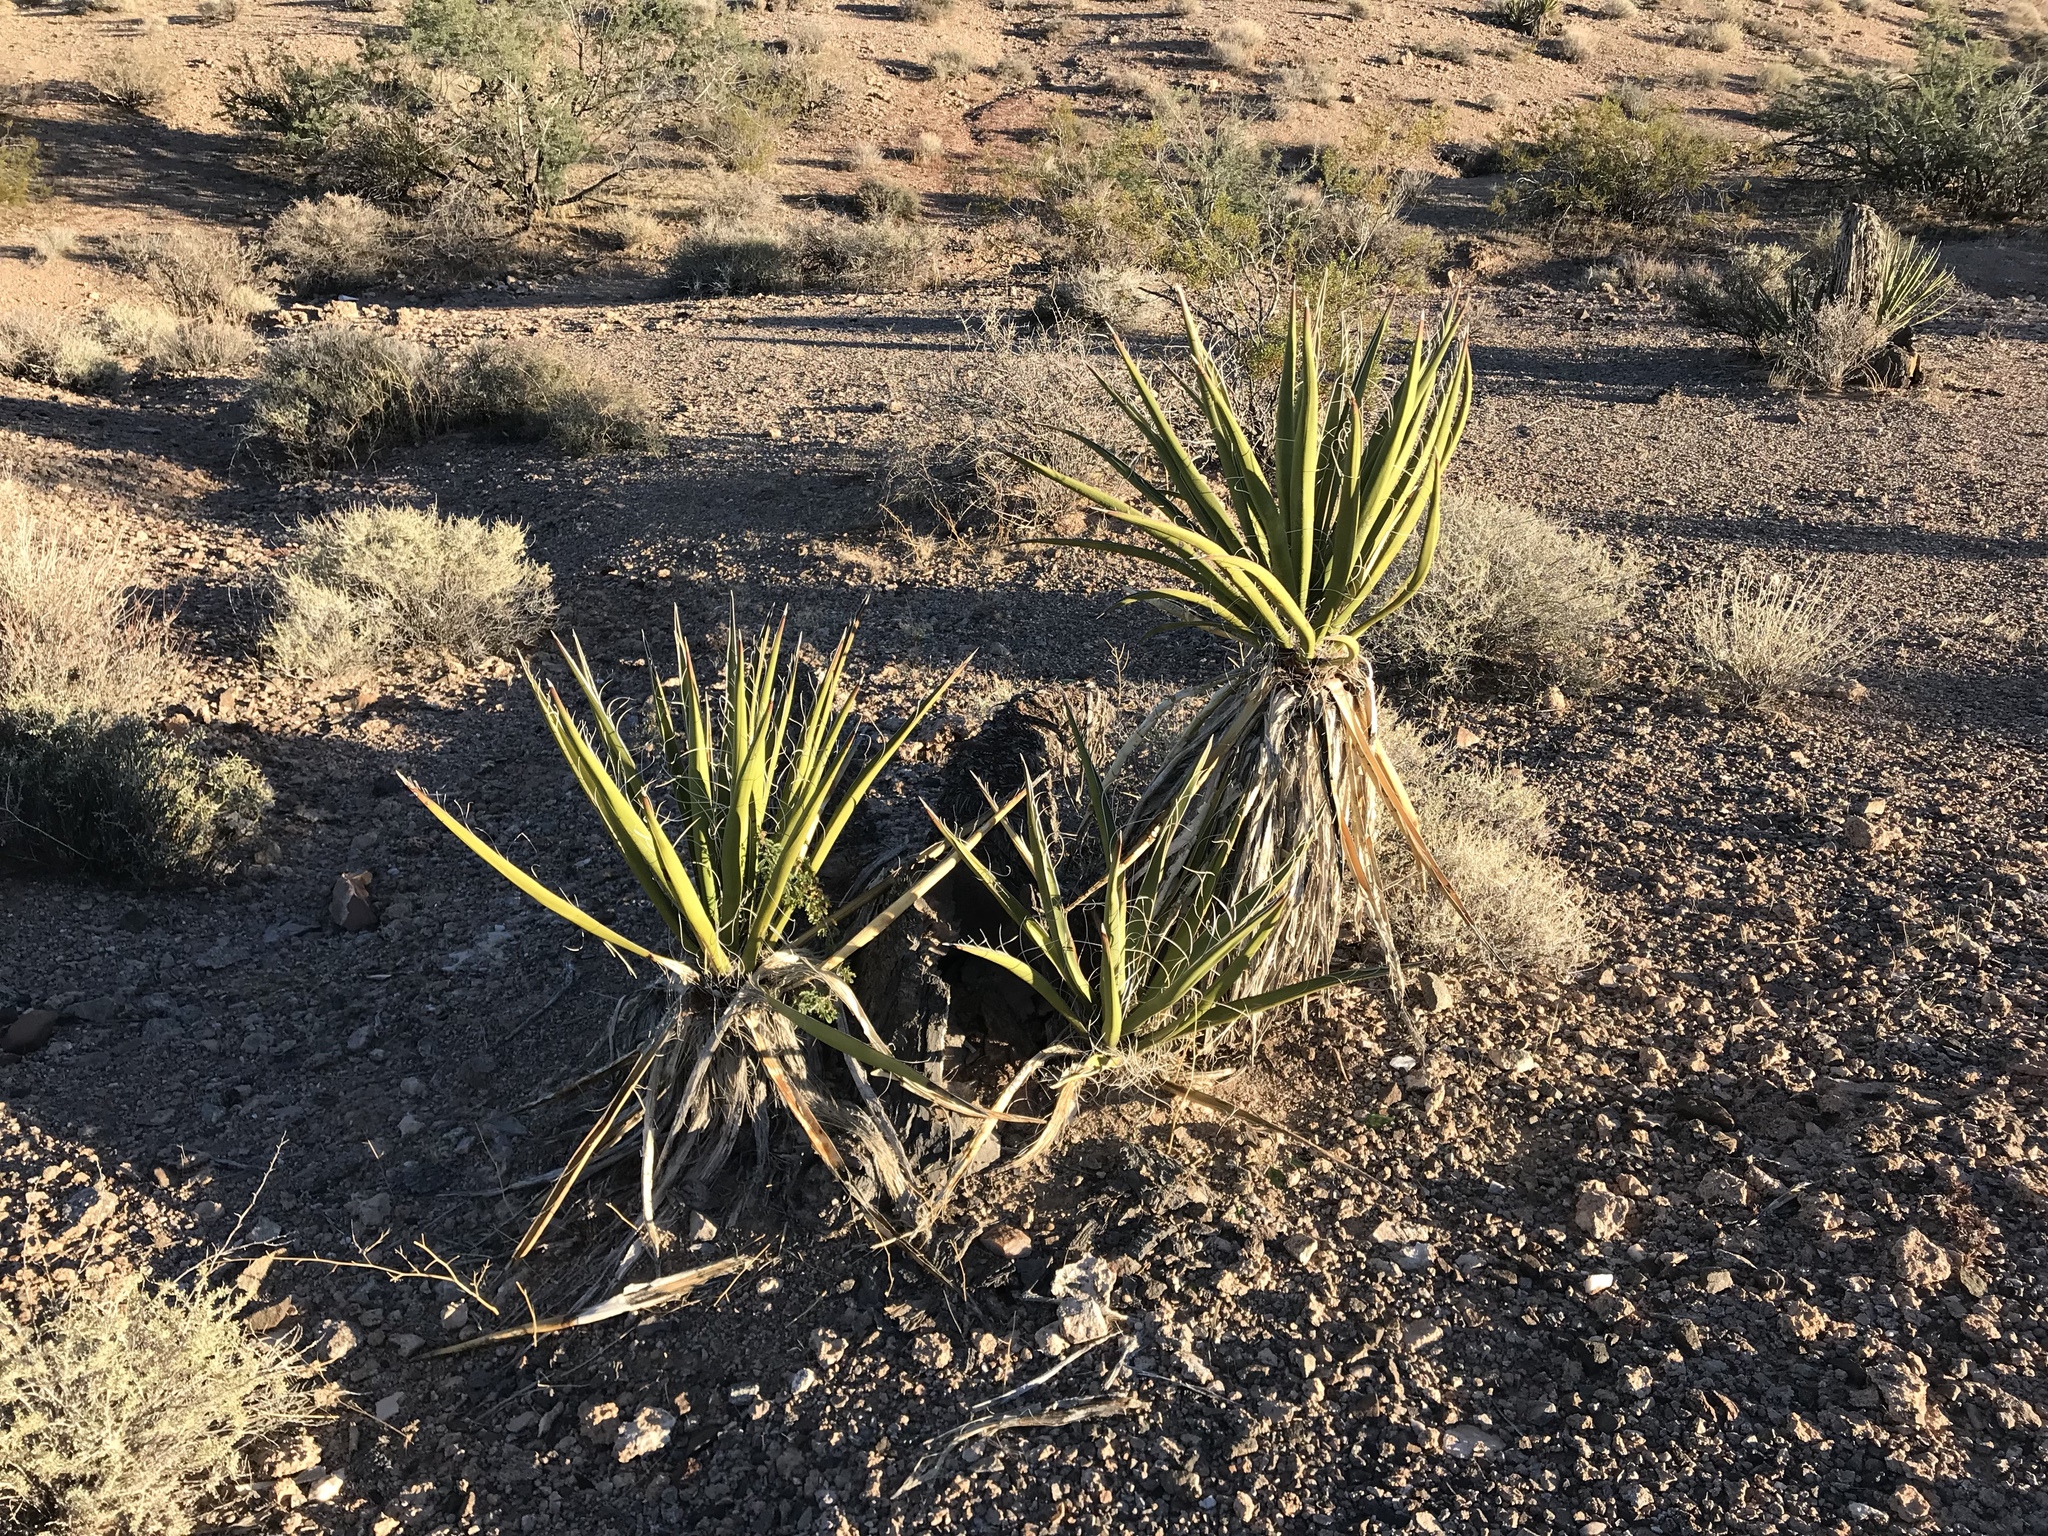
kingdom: Plantae
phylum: Tracheophyta
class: Liliopsida
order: Asparagales
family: Asparagaceae
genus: Yucca
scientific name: Yucca schidigera
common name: Mojave yucca
